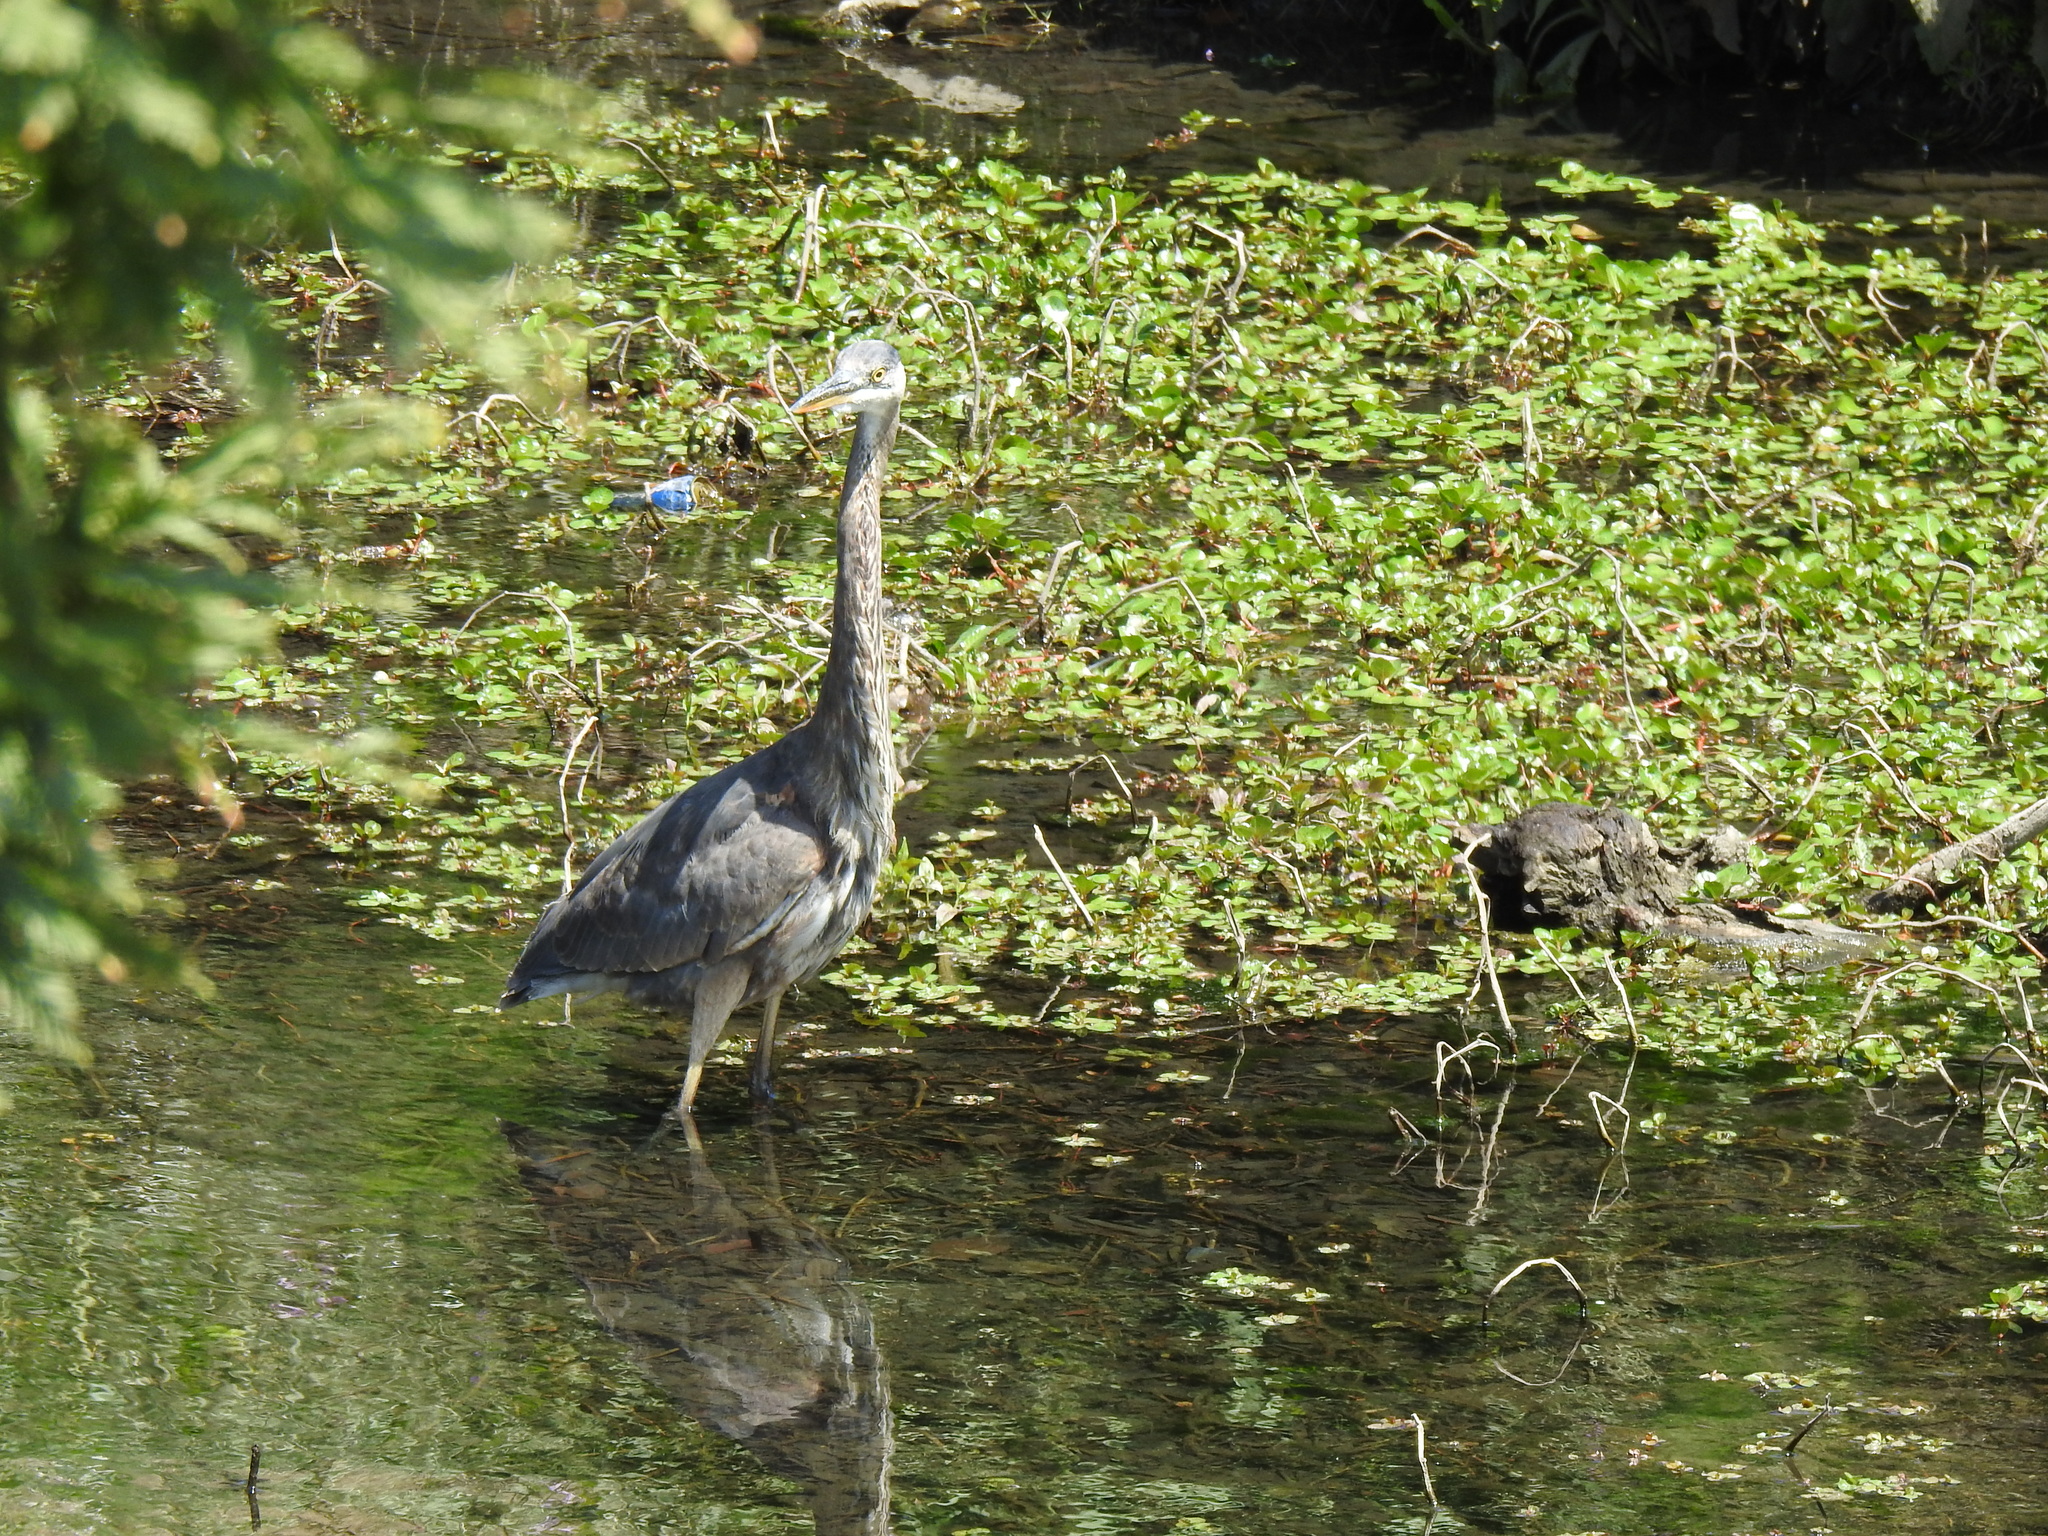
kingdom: Animalia
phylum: Chordata
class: Aves
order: Pelecaniformes
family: Ardeidae
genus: Ardea
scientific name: Ardea herodias
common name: Great blue heron
